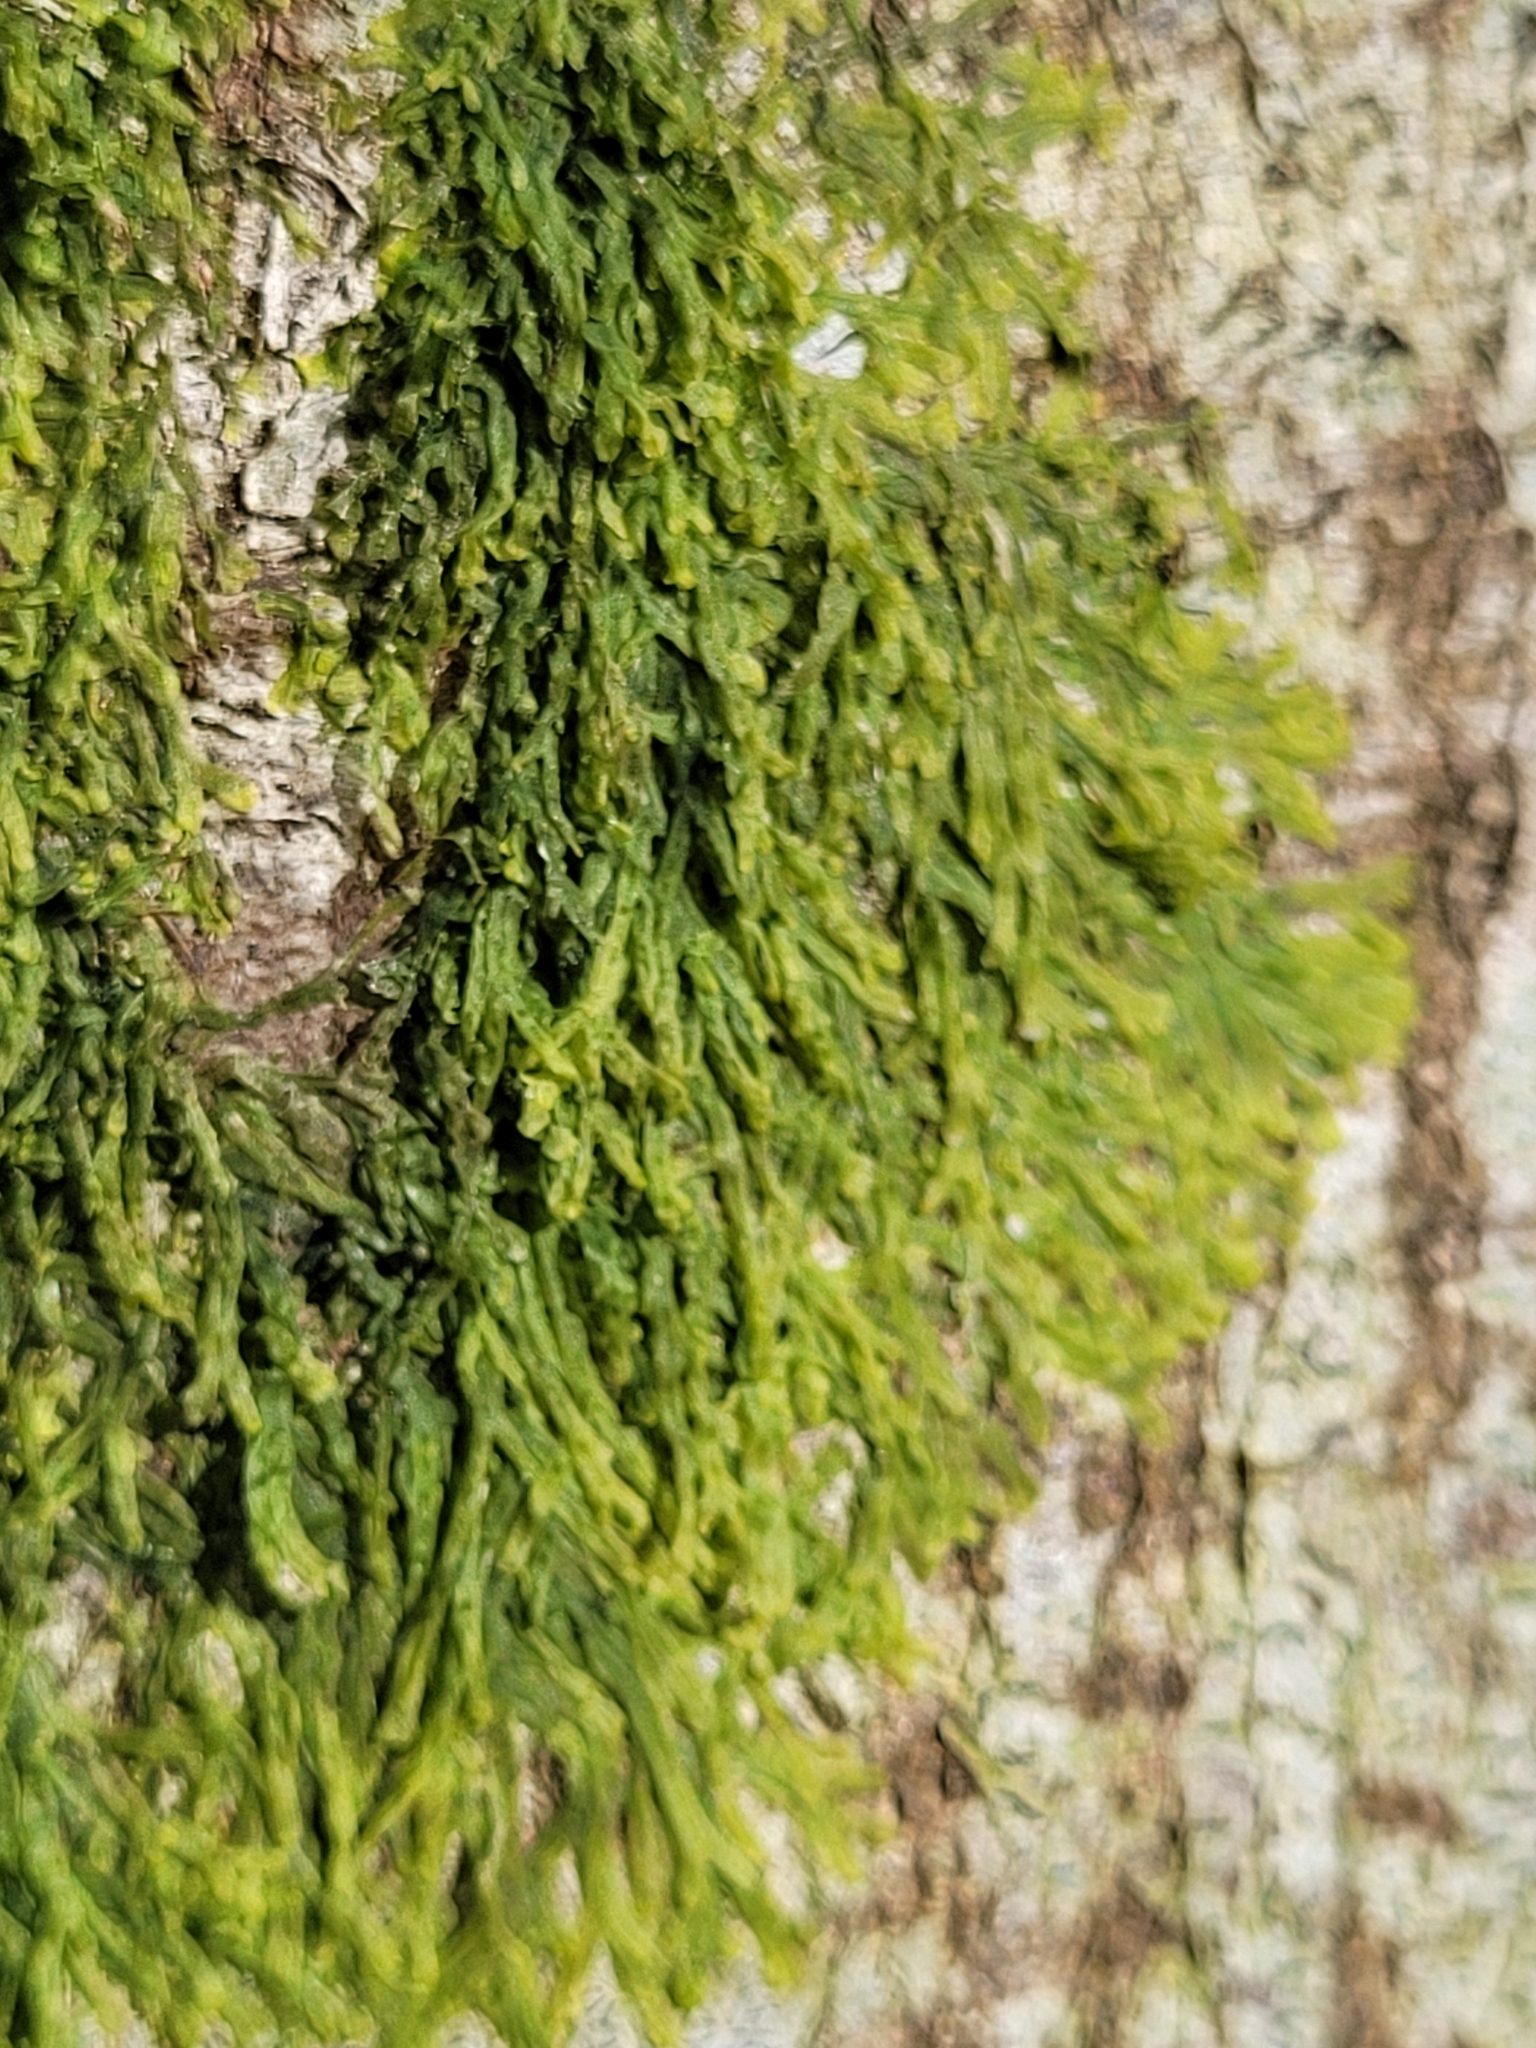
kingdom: Plantae
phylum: Marchantiophyta
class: Jungermanniopsida
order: Metzgeriales
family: Metzgeriaceae
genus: Metzgeria
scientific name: Metzgeria furcata
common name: Forked veilwort
